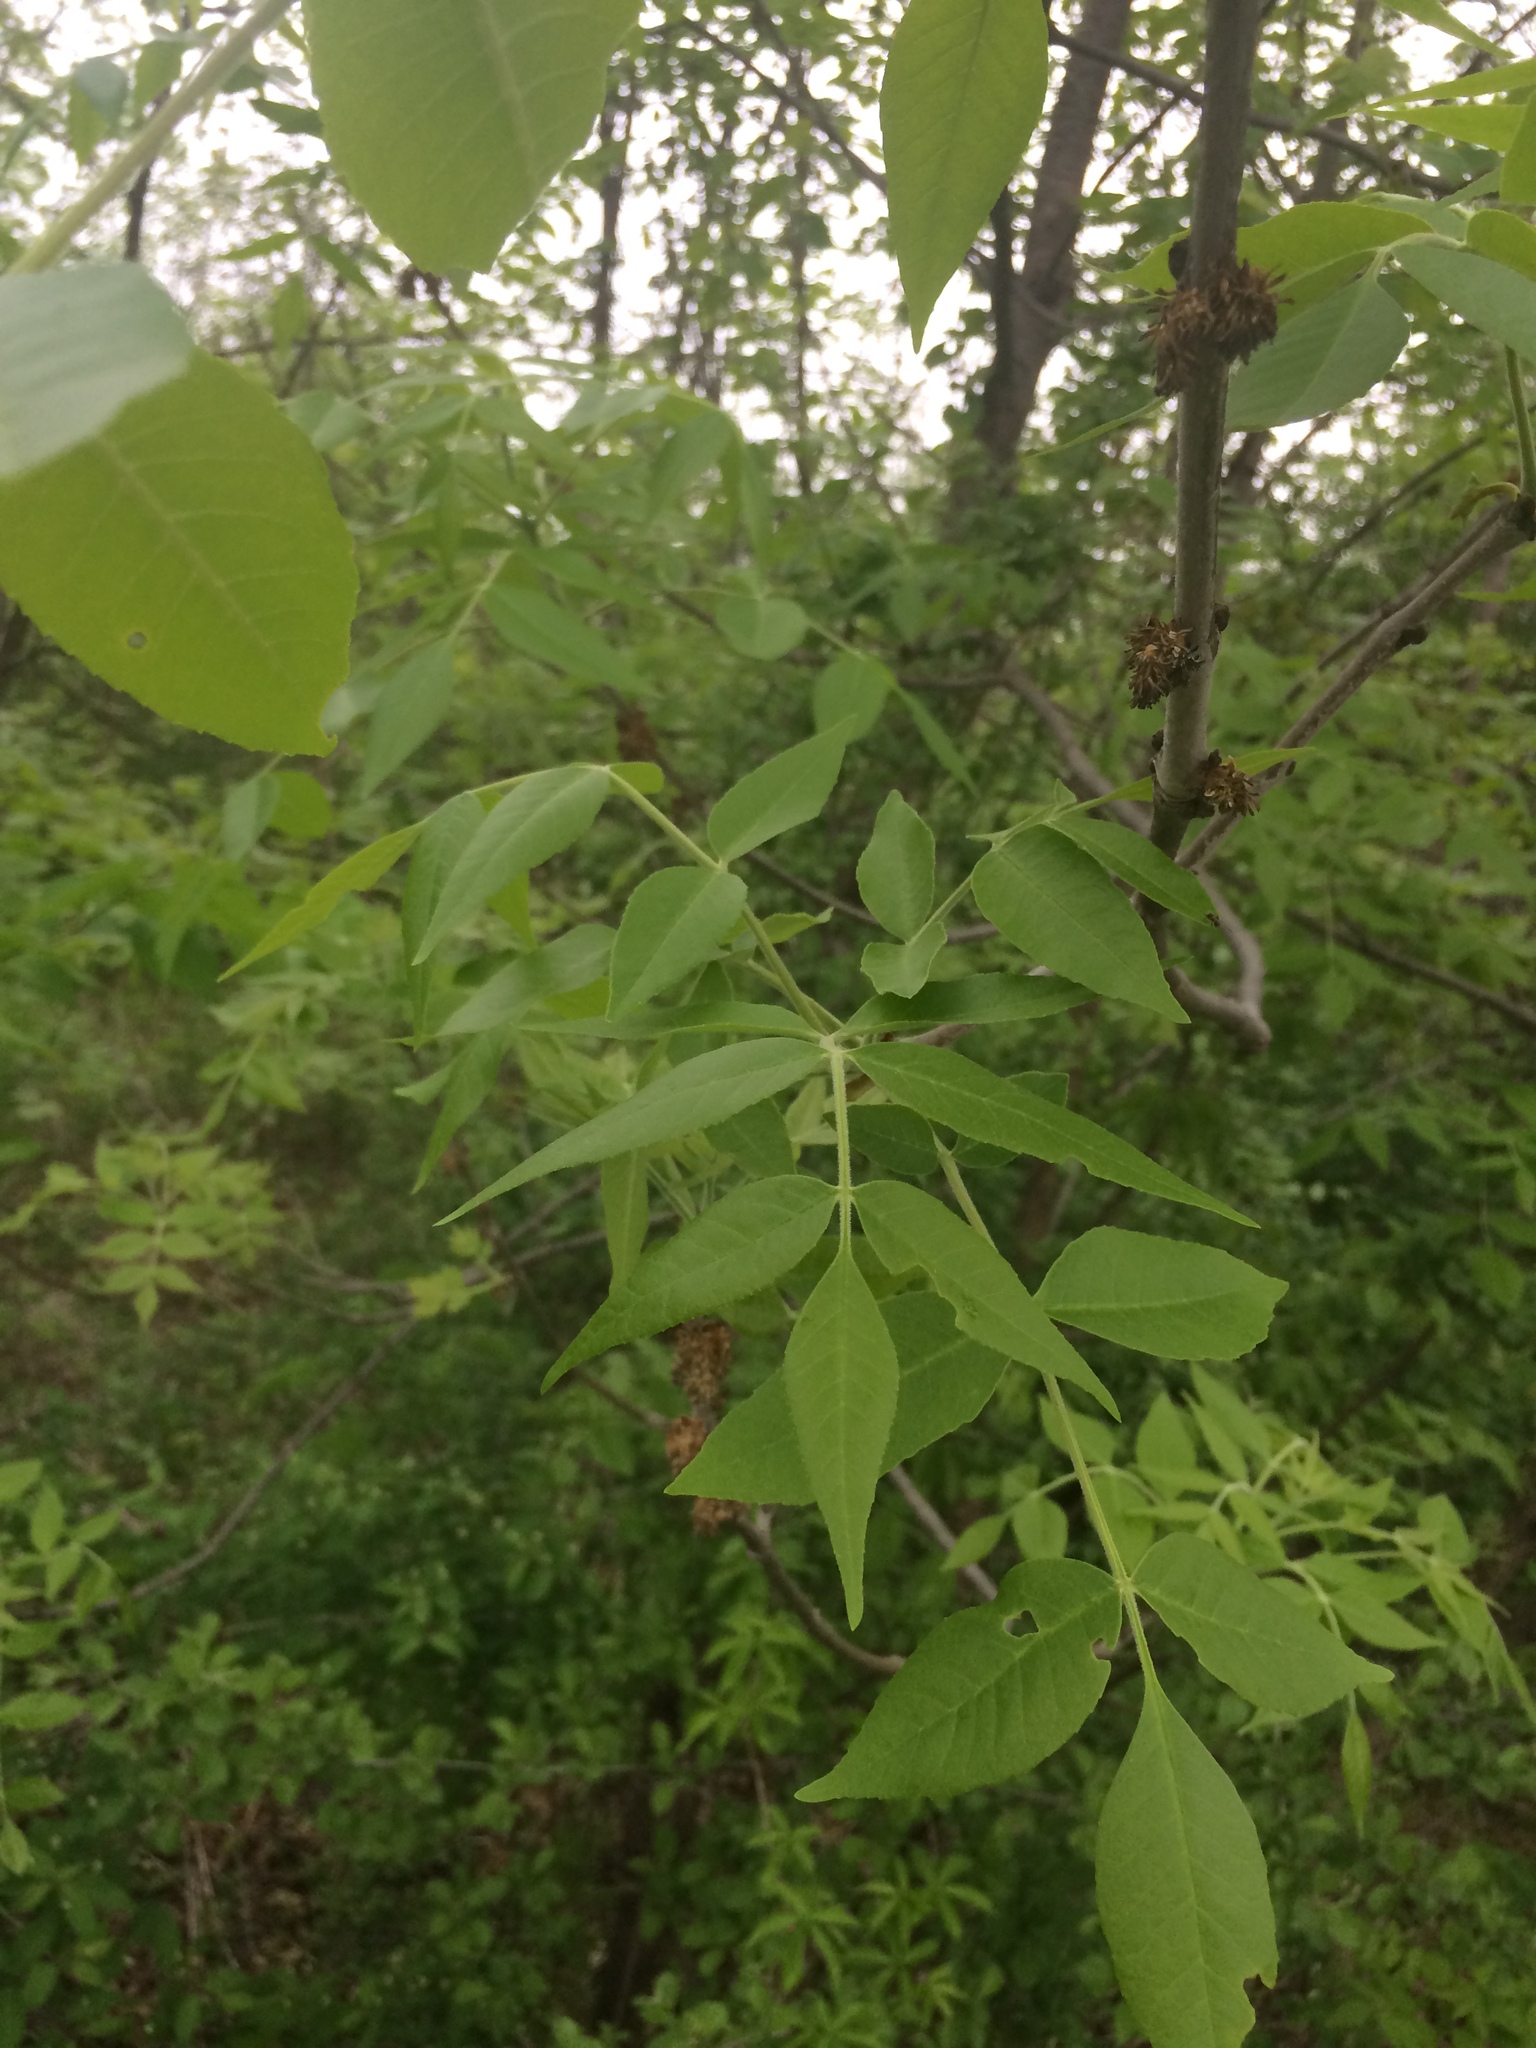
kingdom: Plantae
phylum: Tracheophyta
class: Magnoliopsida
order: Lamiales
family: Oleaceae
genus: Fraxinus
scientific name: Fraxinus pennsylvanica
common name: Green ash
